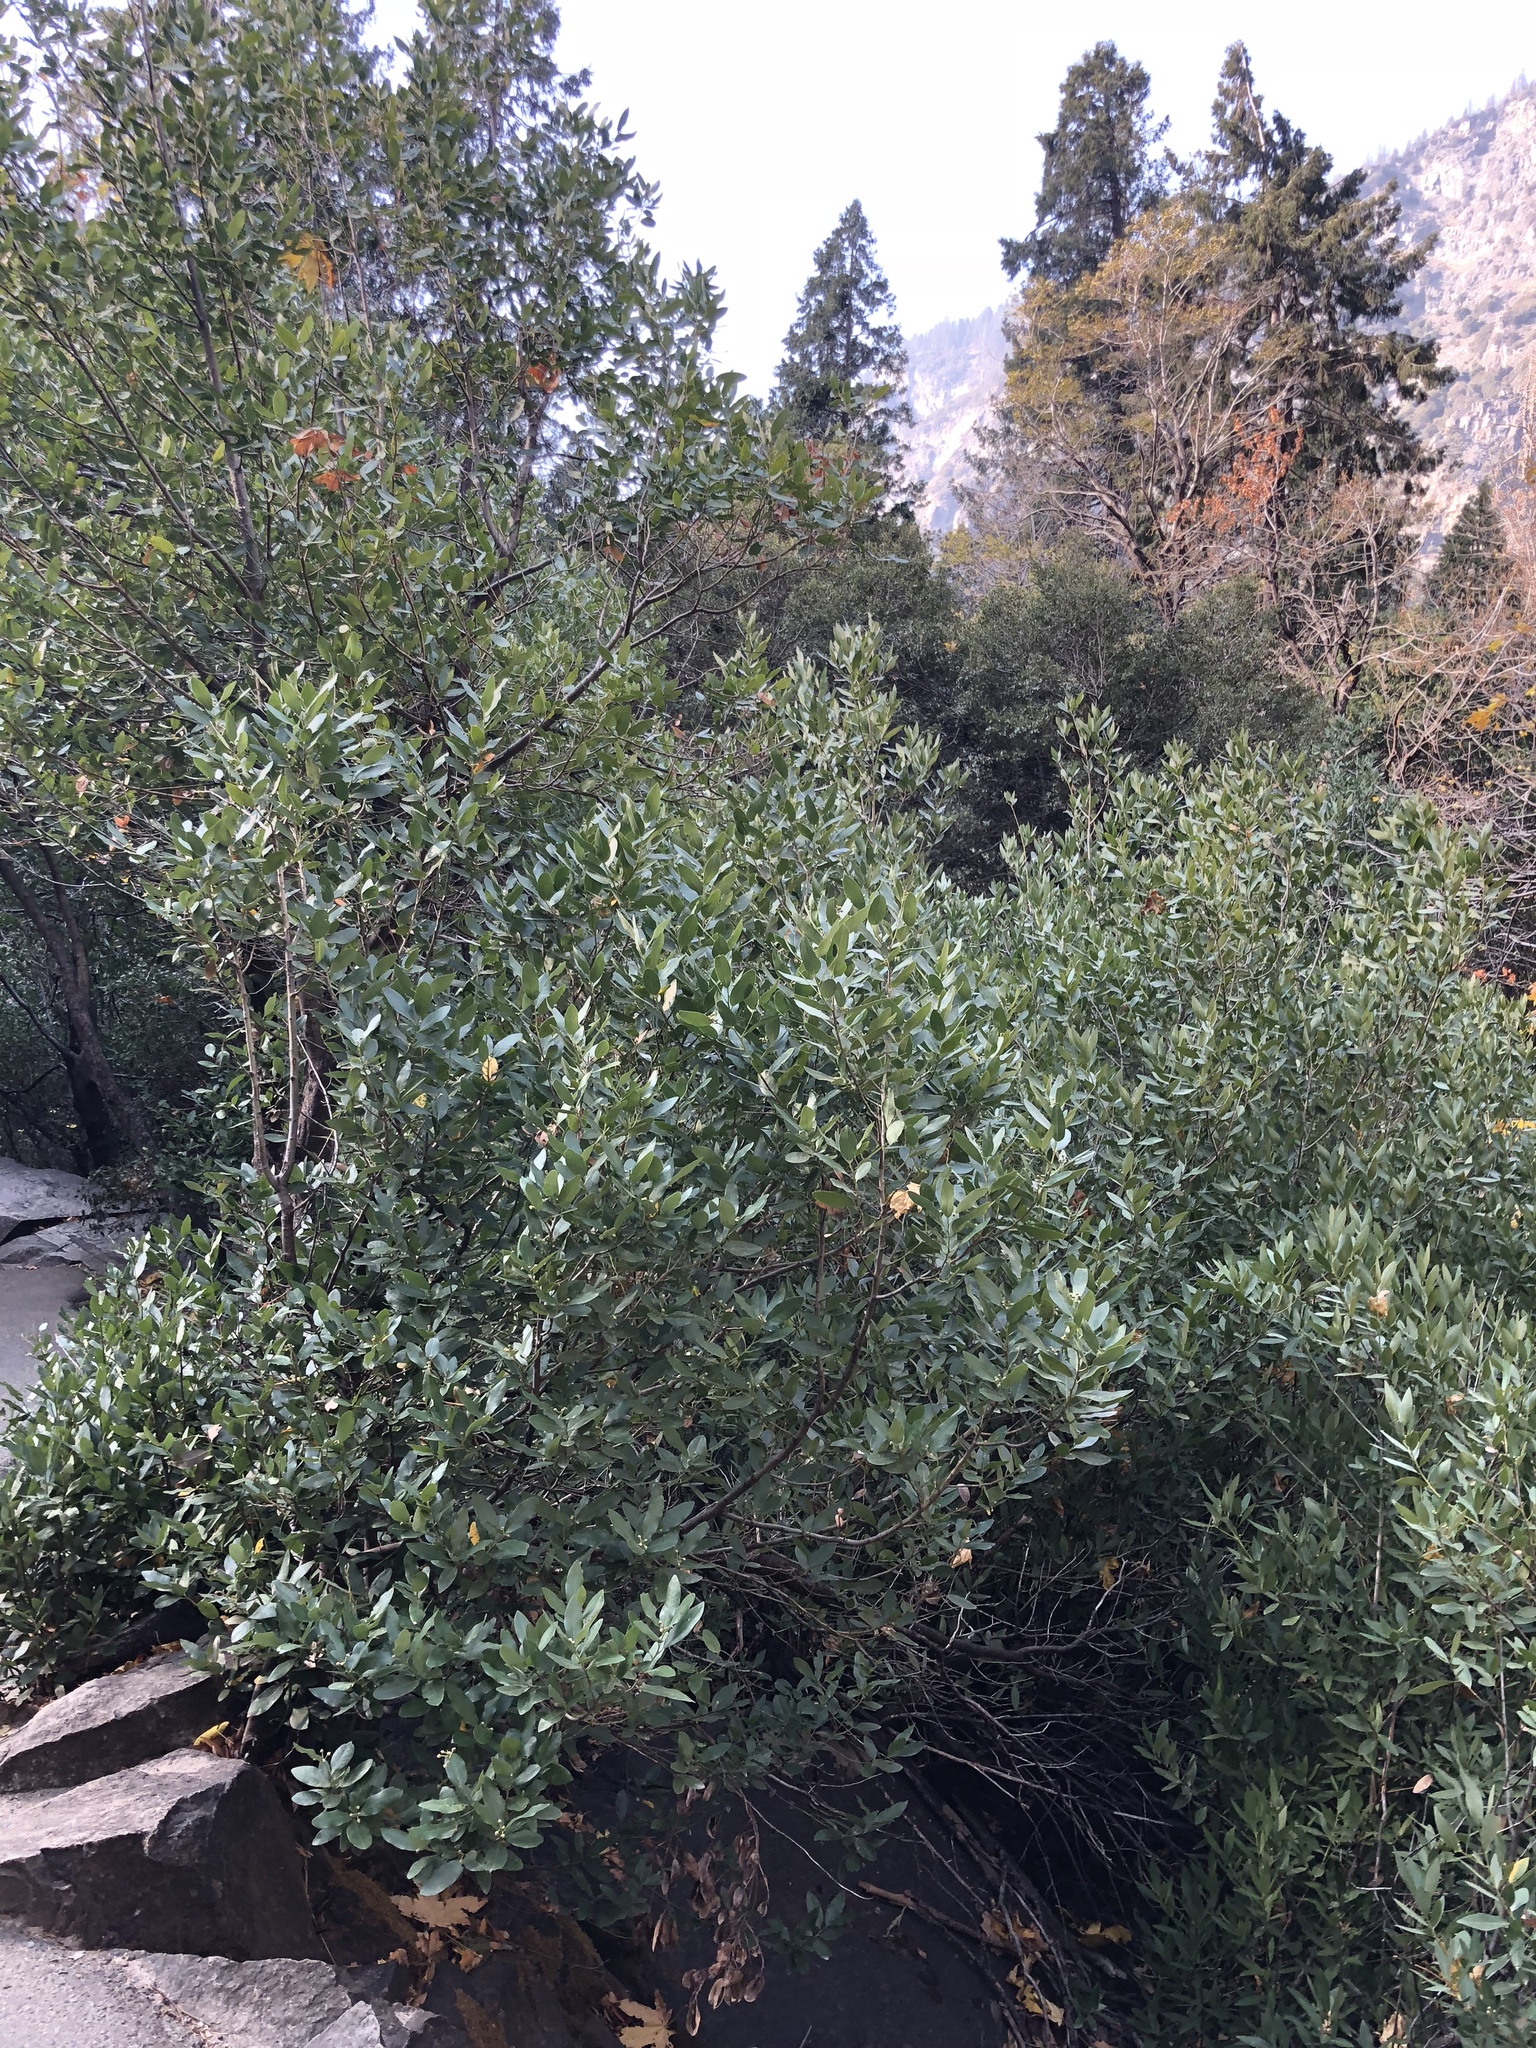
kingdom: Plantae
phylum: Tracheophyta
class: Magnoliopsida
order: Laurales
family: Lauraceae
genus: Umbellularia
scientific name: Umbellularia californica
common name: California bay
